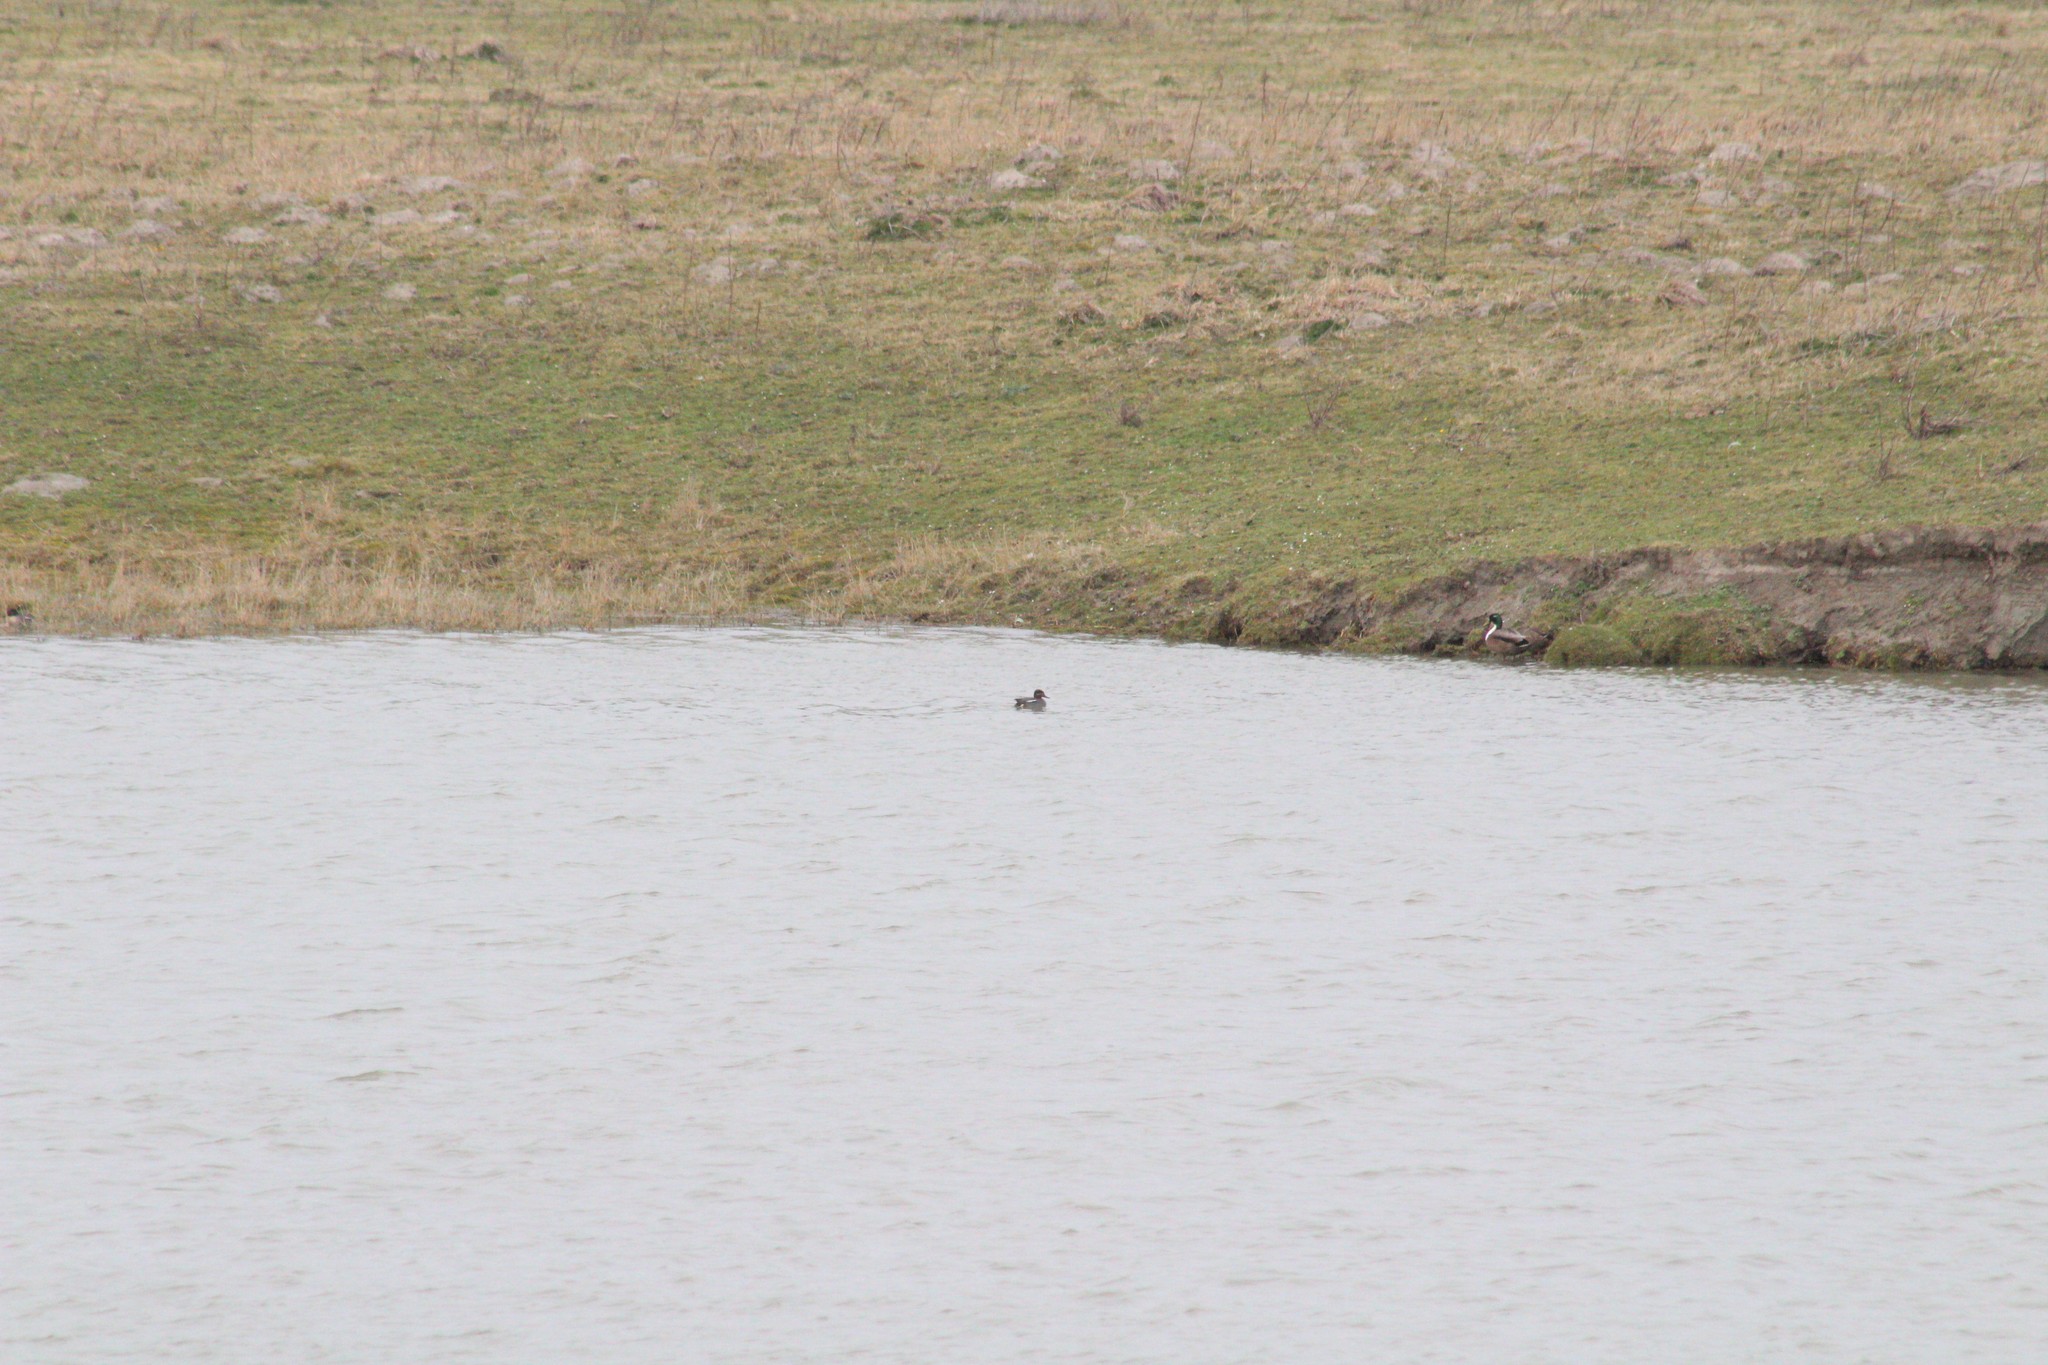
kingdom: Animalia
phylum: Chordata
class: Aves
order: Anseriformes
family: Anatidae
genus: Anas
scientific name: Anas crecca
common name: Eurasian teal
